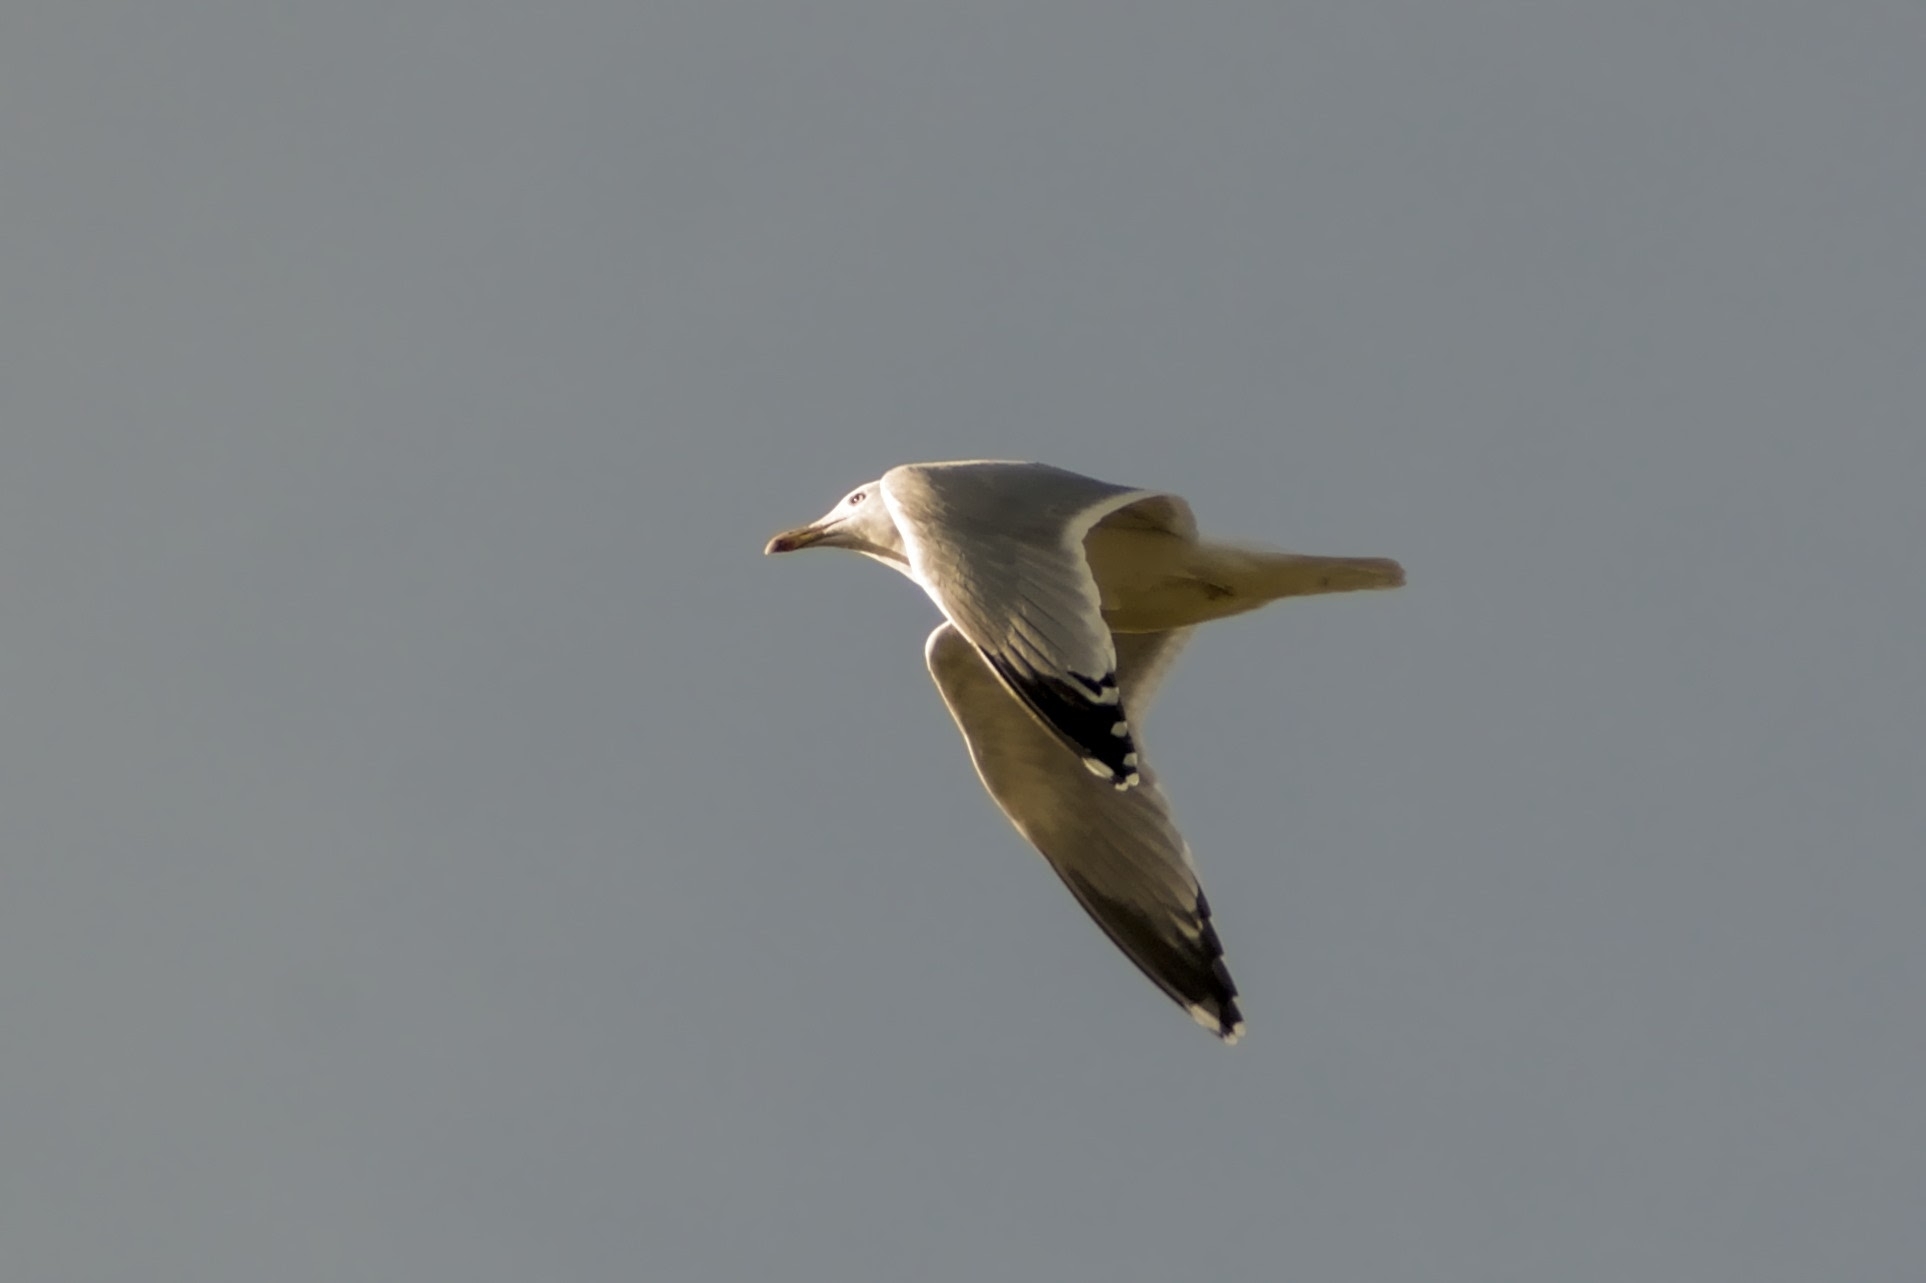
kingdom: Animalia
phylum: Chordata
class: Aves
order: Charadriiformes
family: Laridae
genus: Larus
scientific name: Larus argentatus
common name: Herring gull
